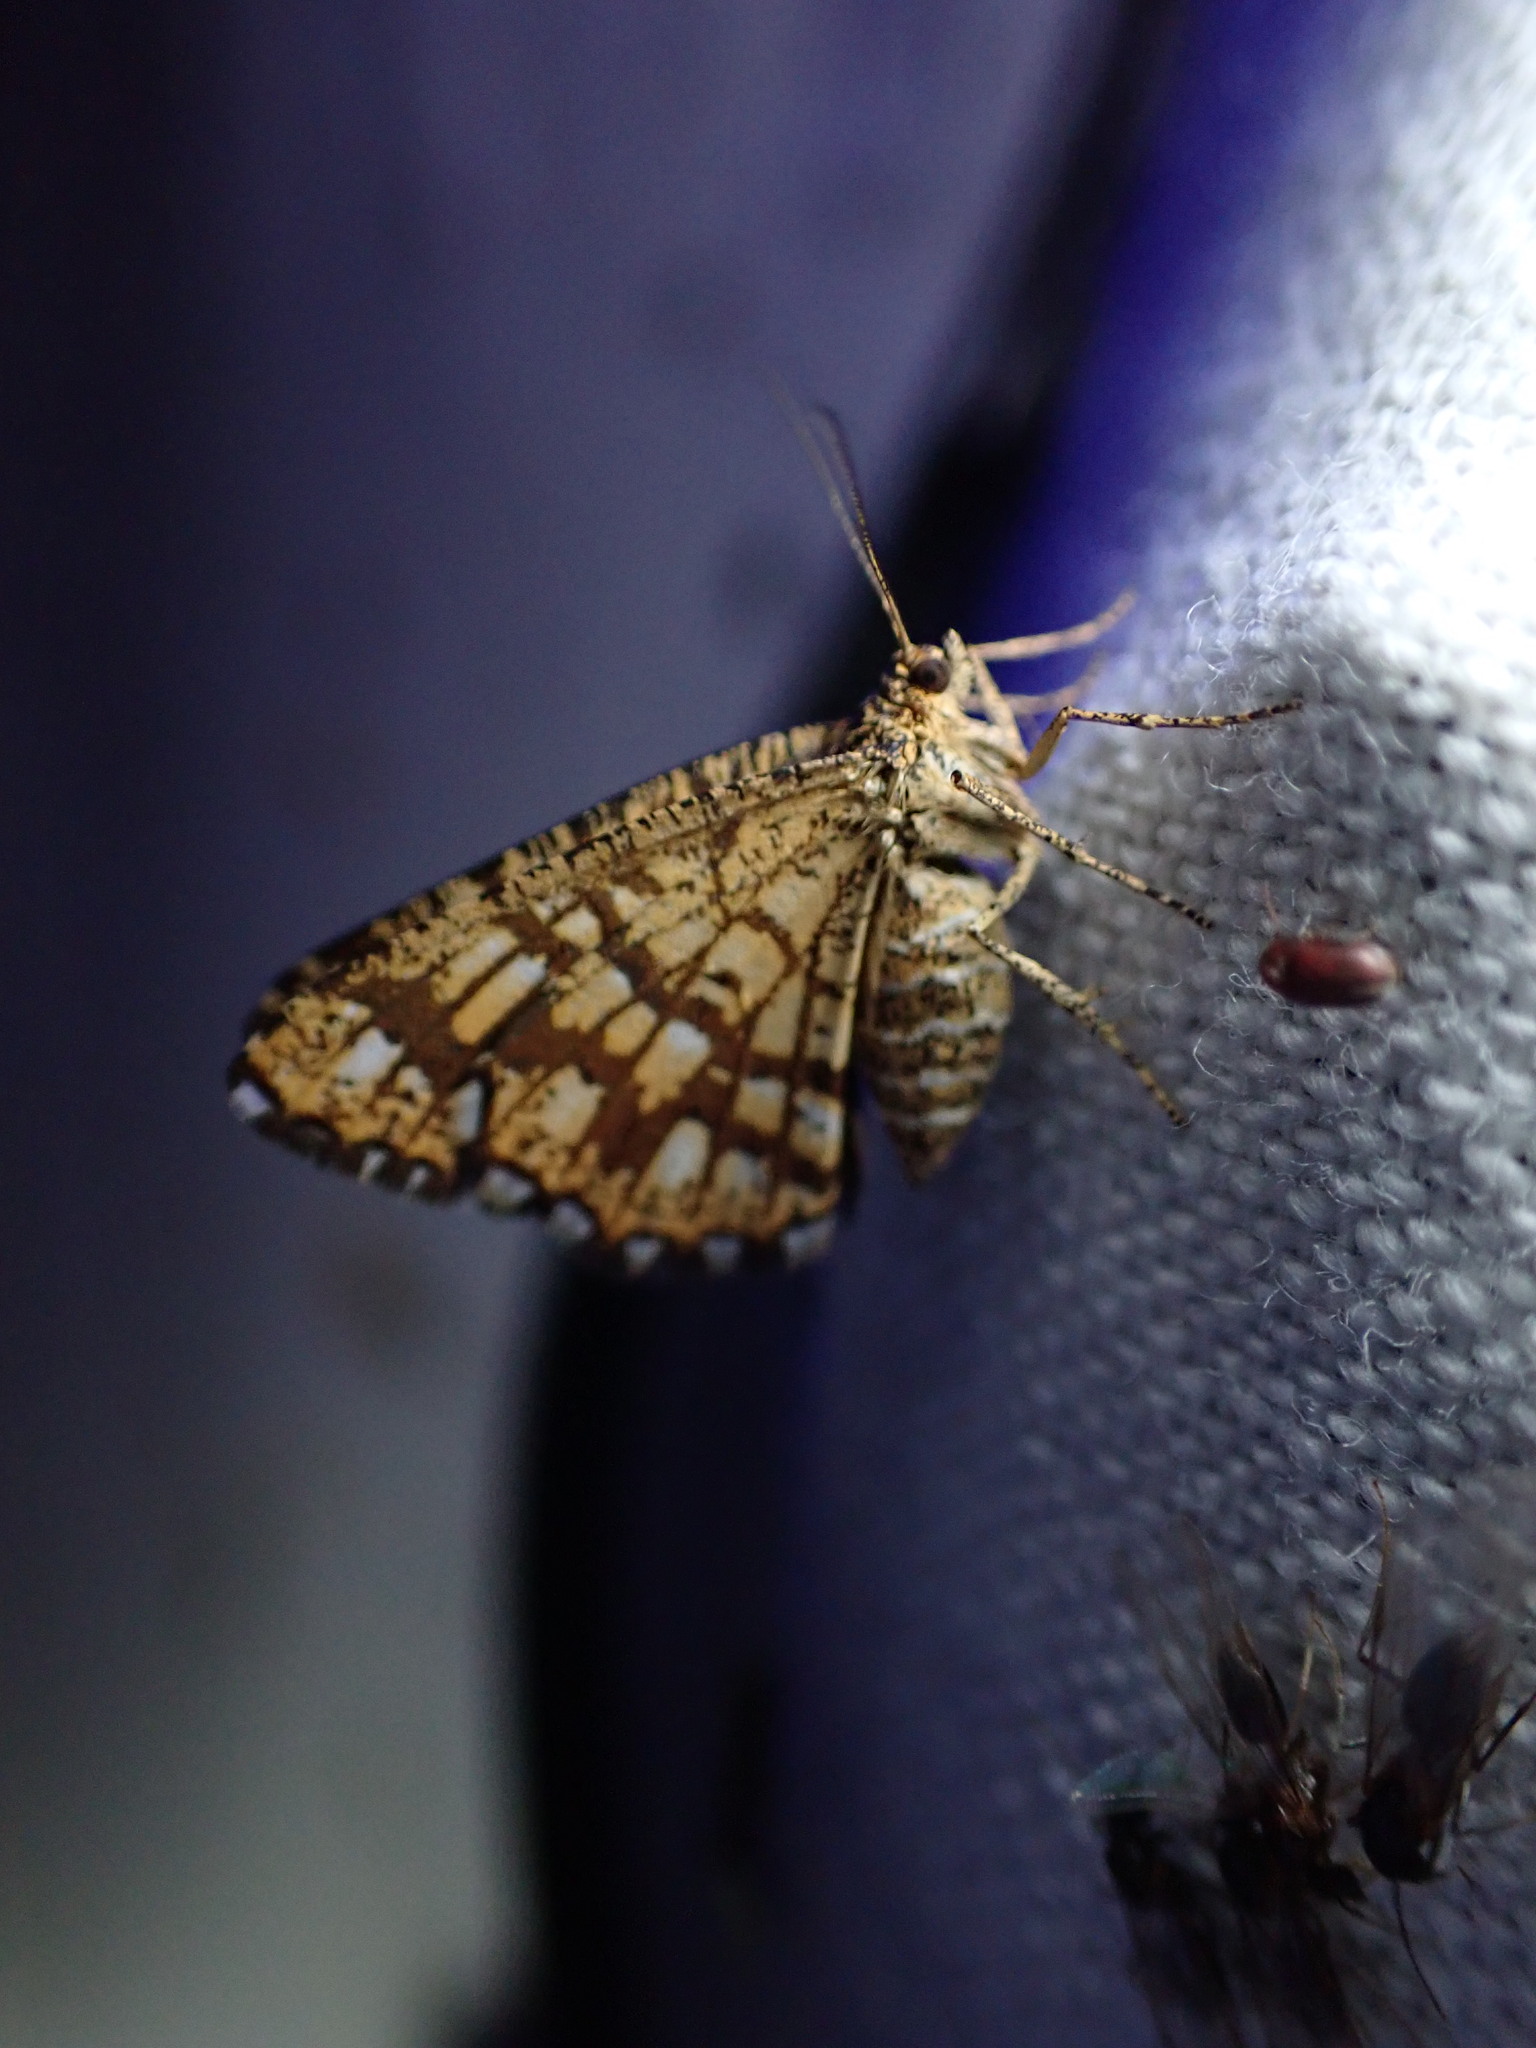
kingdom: Animalia
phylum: Arthropoda
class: Insecta
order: Lepidoptera
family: Geometridae
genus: Chiasmia
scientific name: Chiasmia clathrata
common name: Latticed heath
